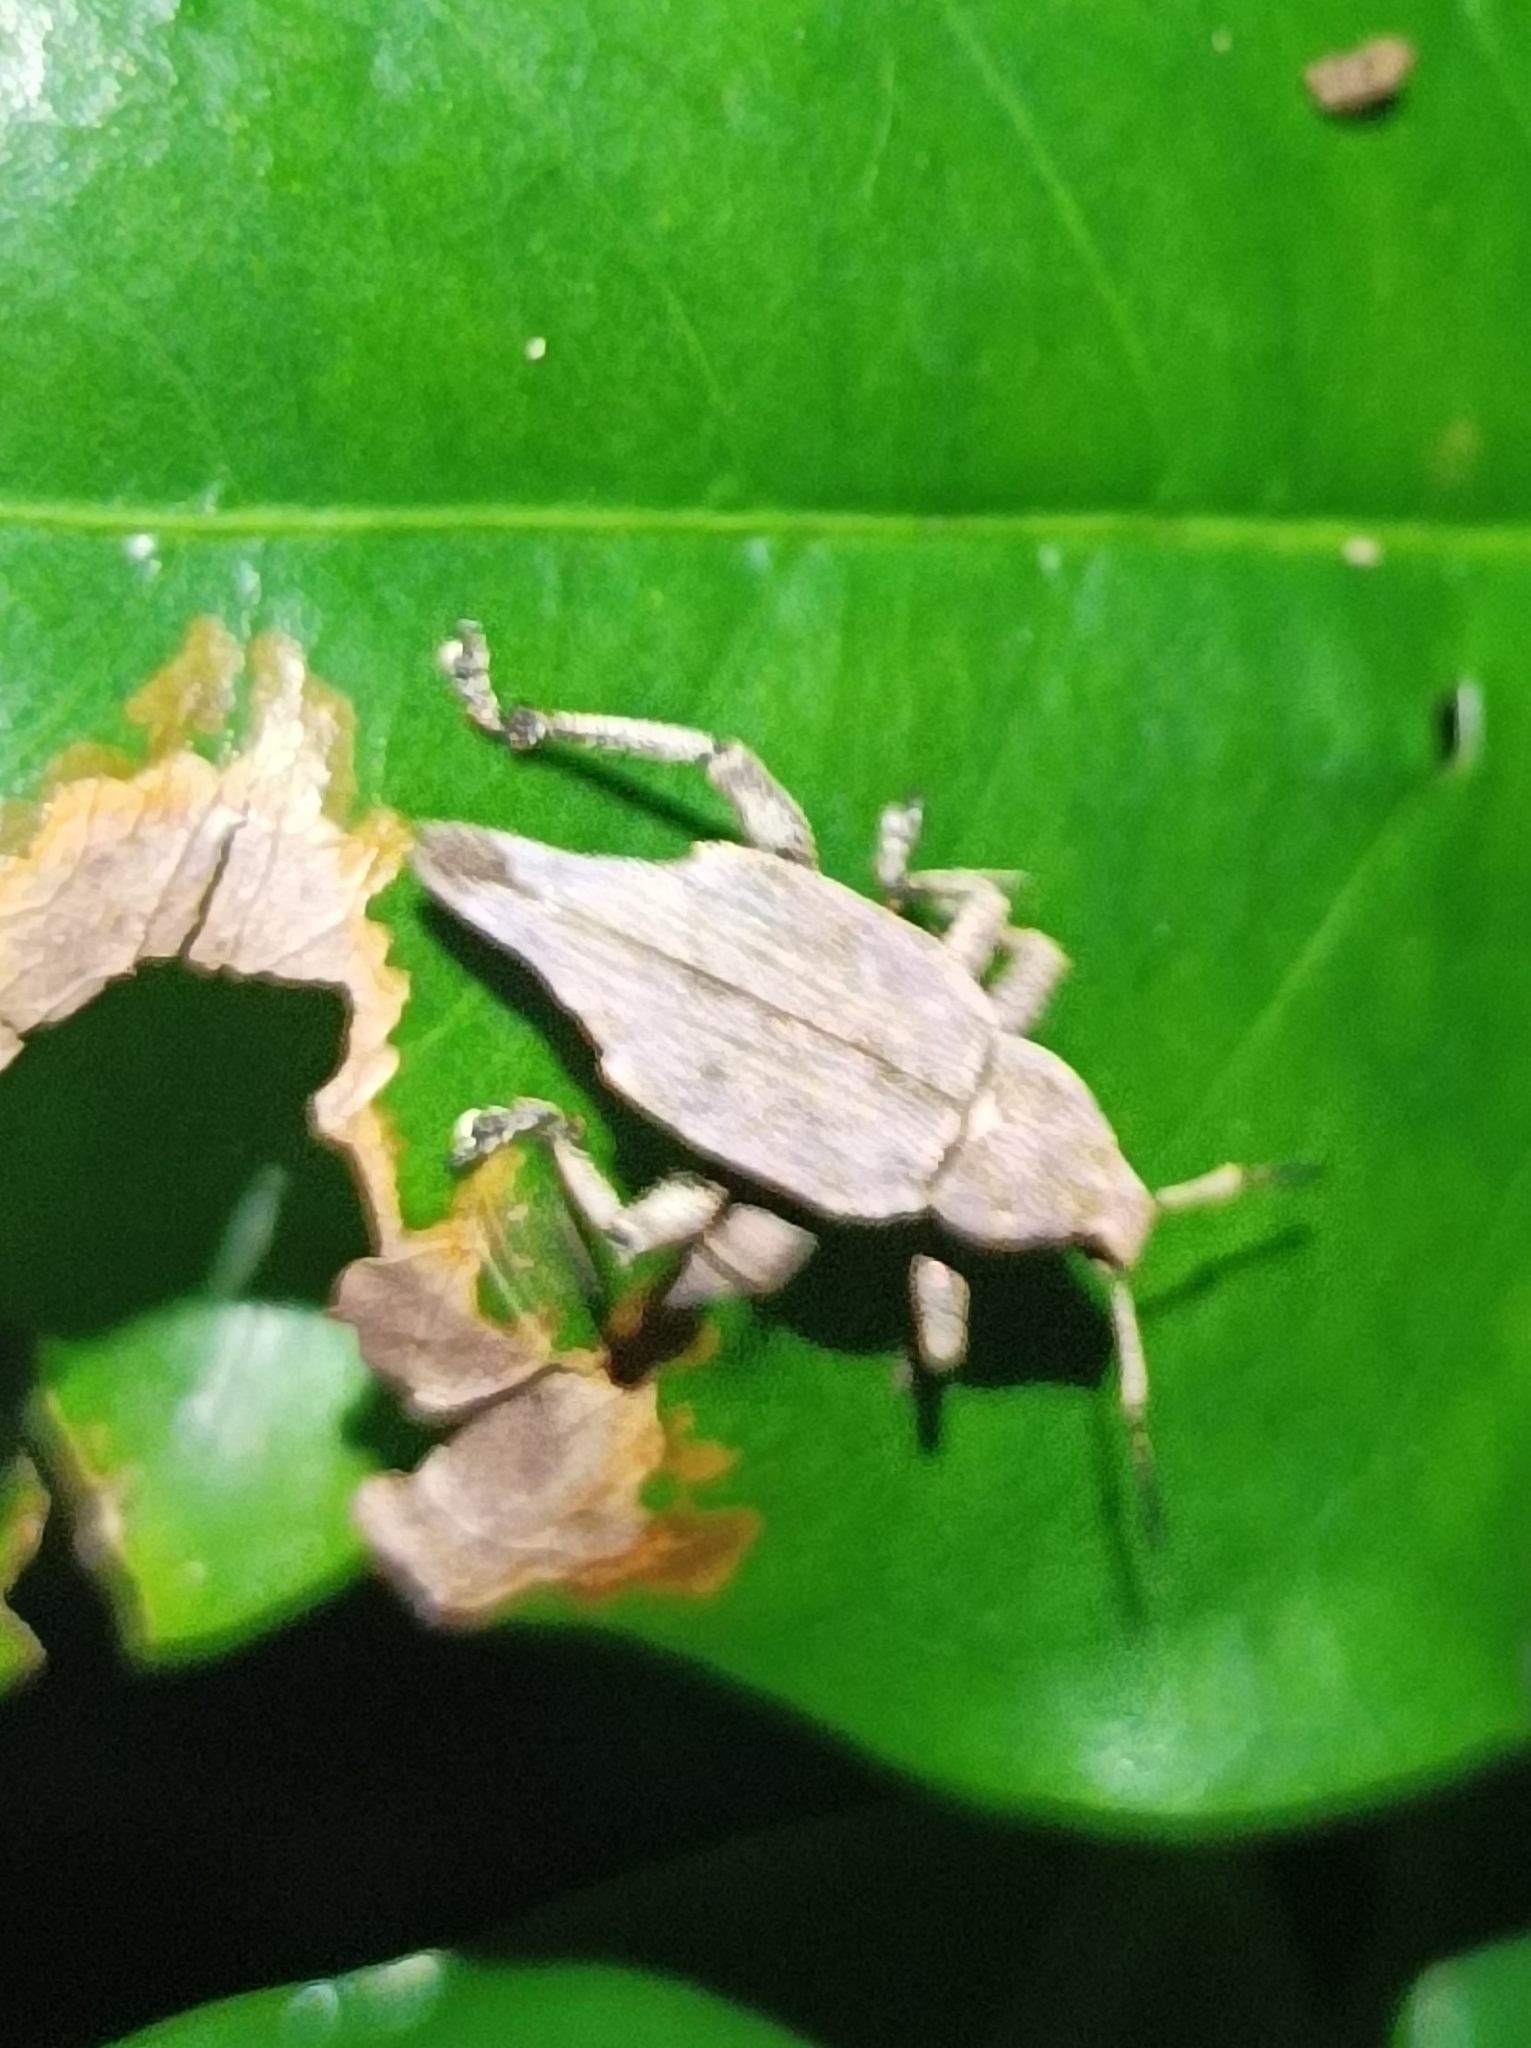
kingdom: Animalia
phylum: Arthropoda
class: Insecta
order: Coleoptera
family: Curculionidae
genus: Elytrurus
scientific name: Elytrurus caudatus
